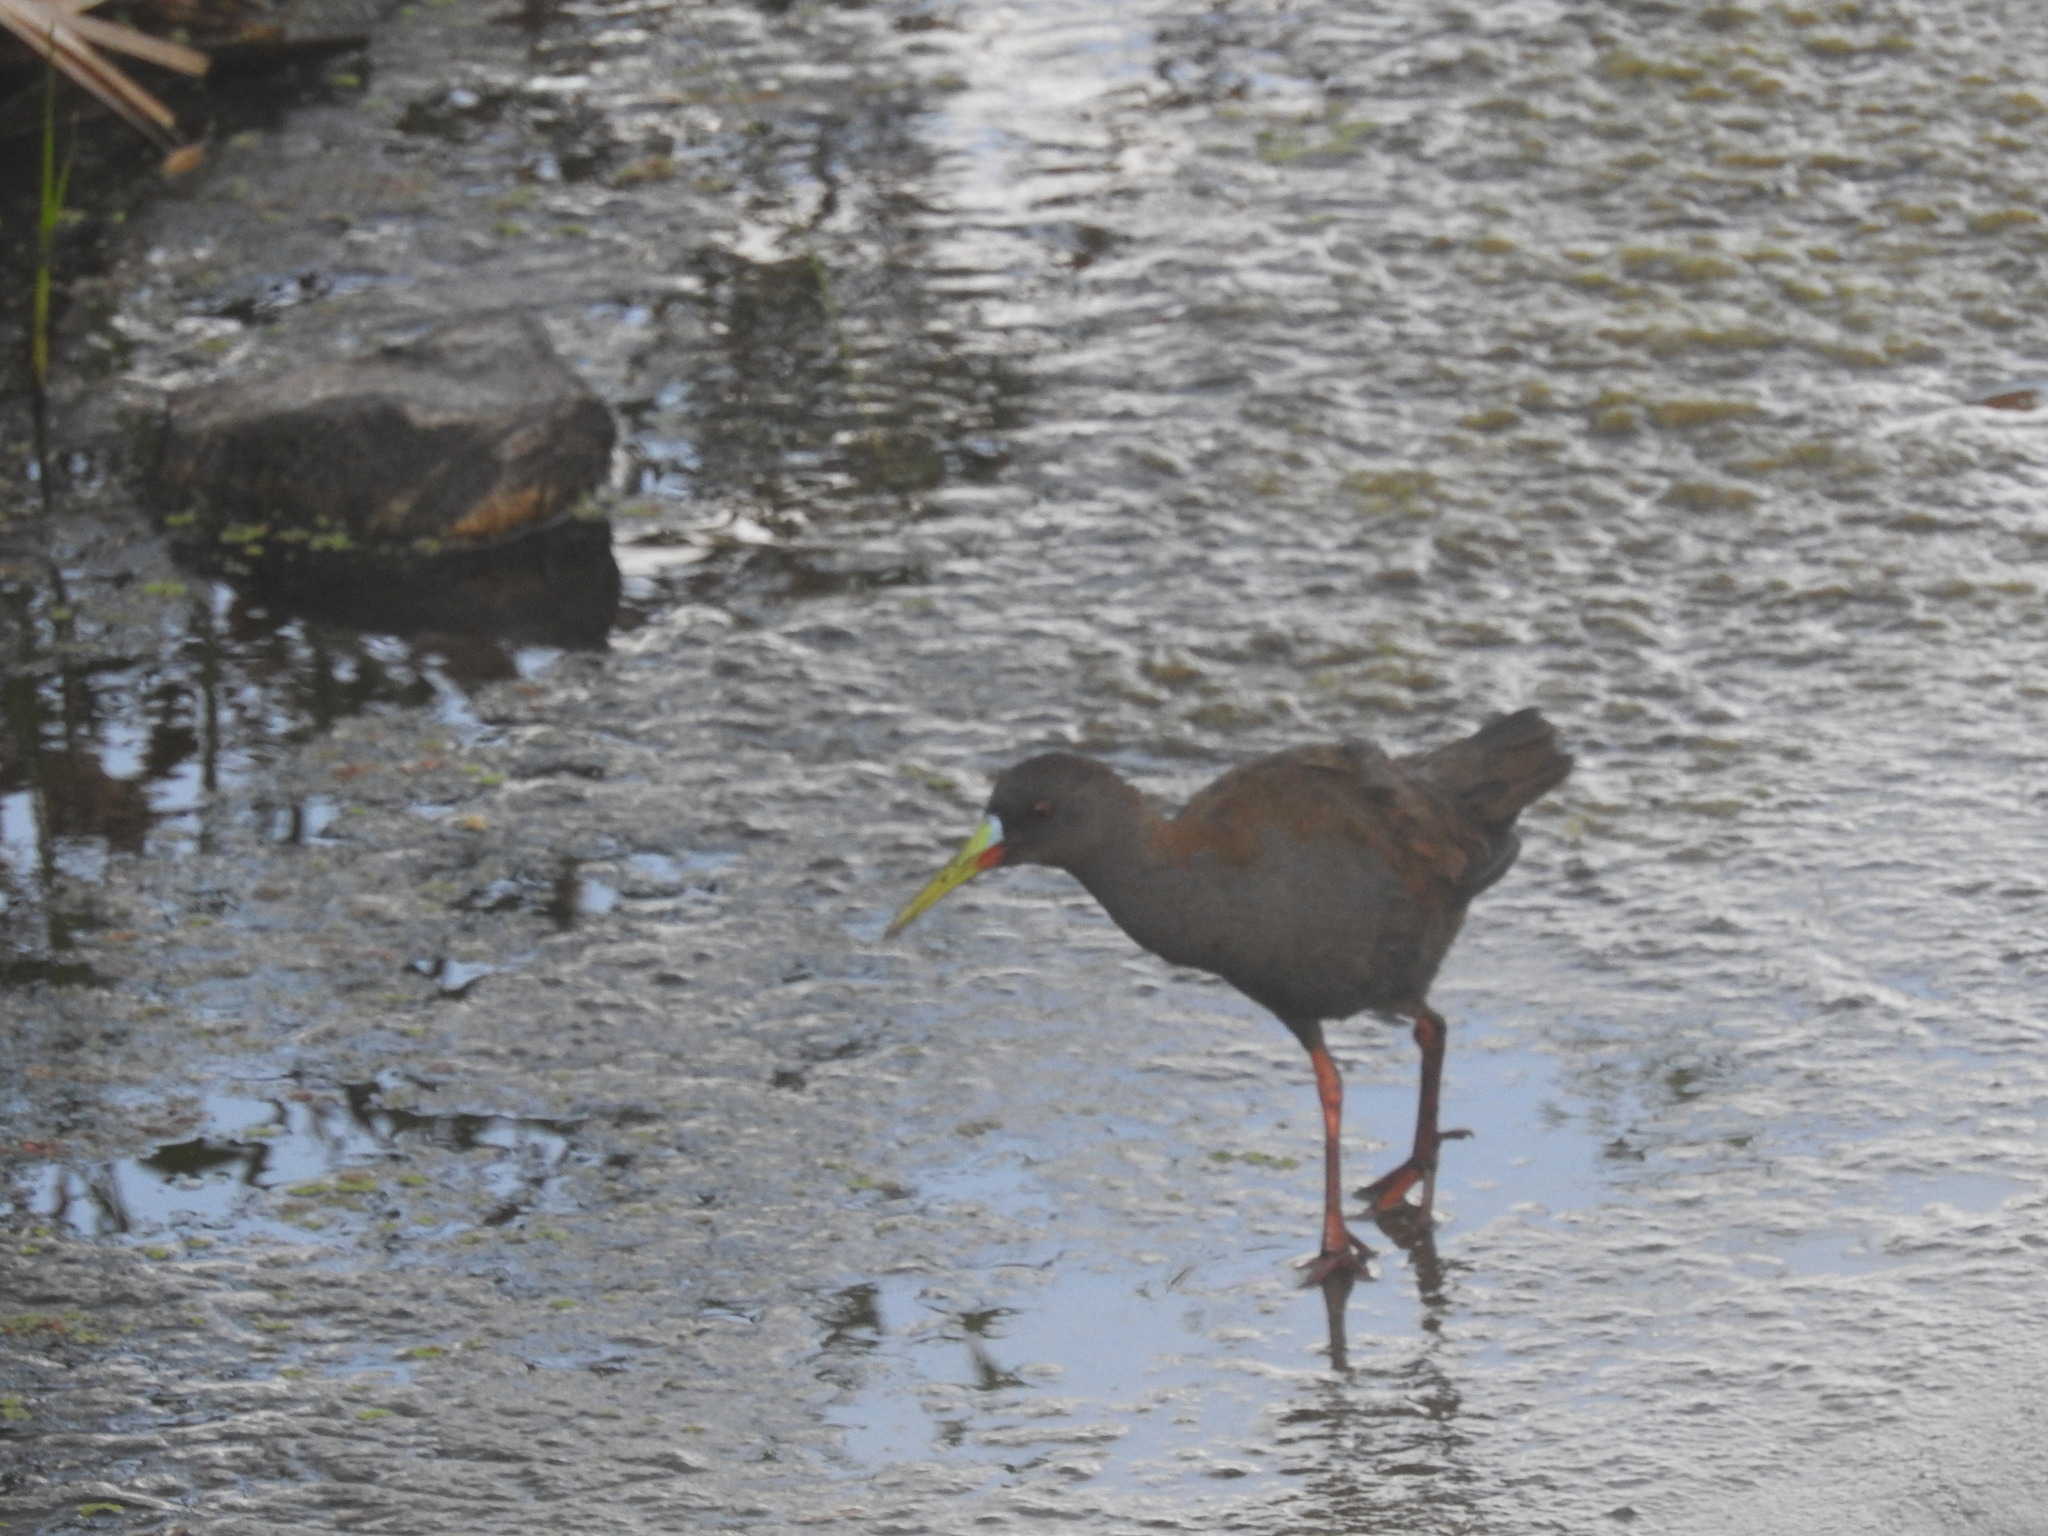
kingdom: Animalia
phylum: Chordata
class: Aves
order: Gruiformes
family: Rallidae
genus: Pardirallus
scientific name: Pardirallus sanguinolentus
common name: Plumbeous rail
